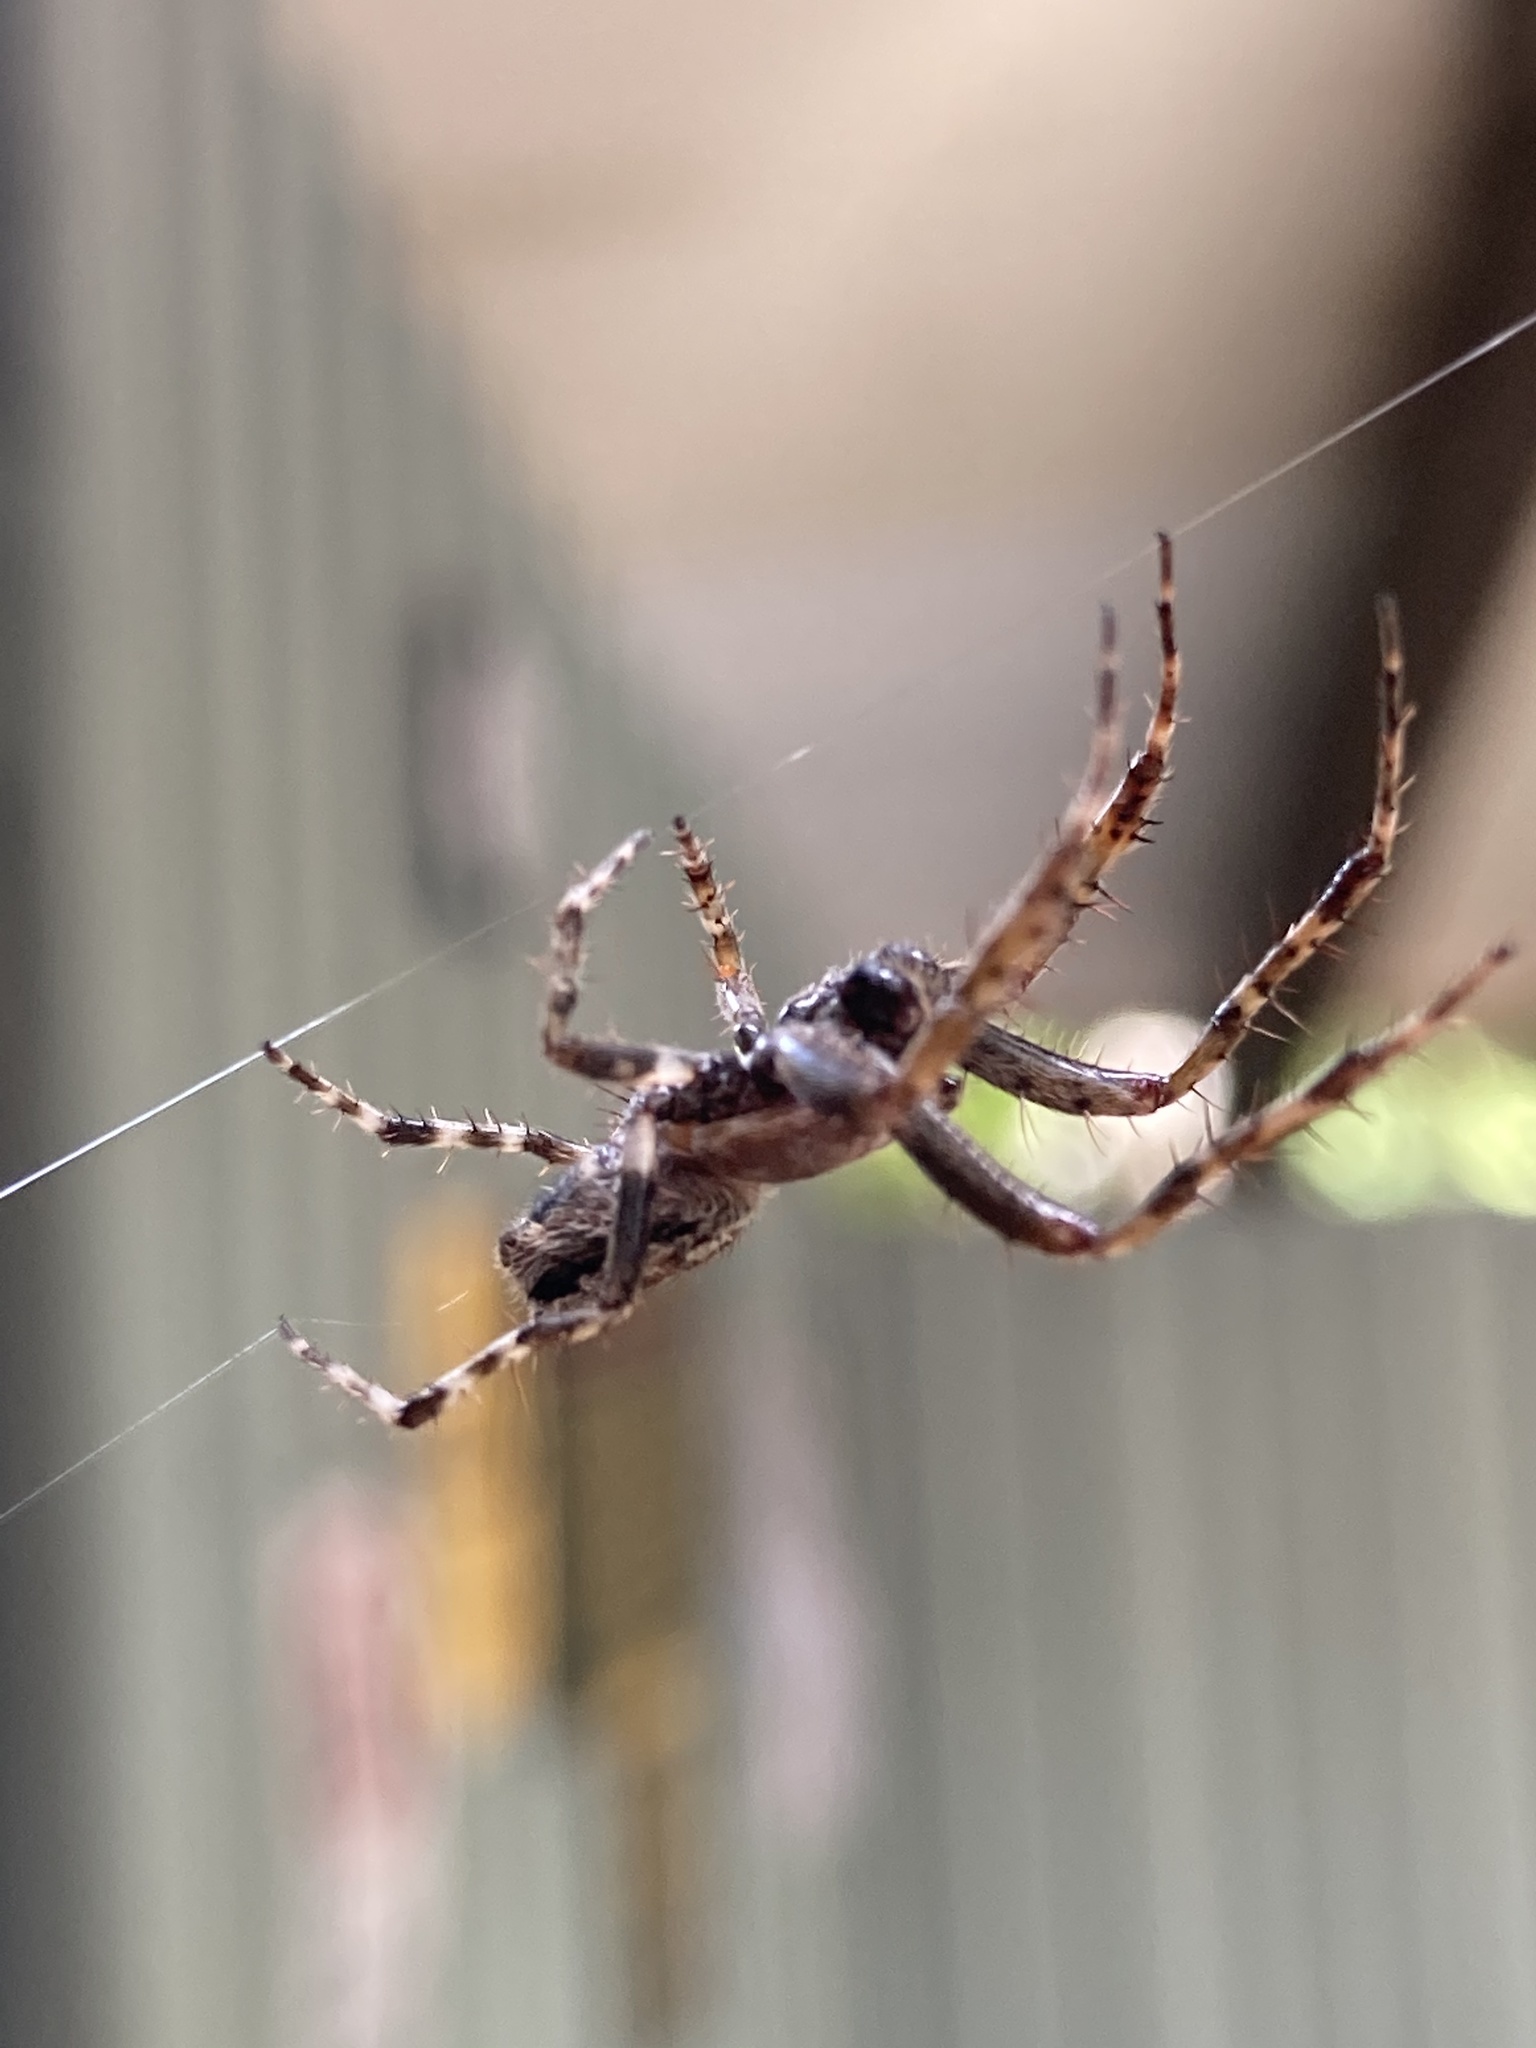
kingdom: Animalia
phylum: Arthropoda
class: Arachnida
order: Araneae
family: Araneidae
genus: Eriophora
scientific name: Eriophora pustulosa
